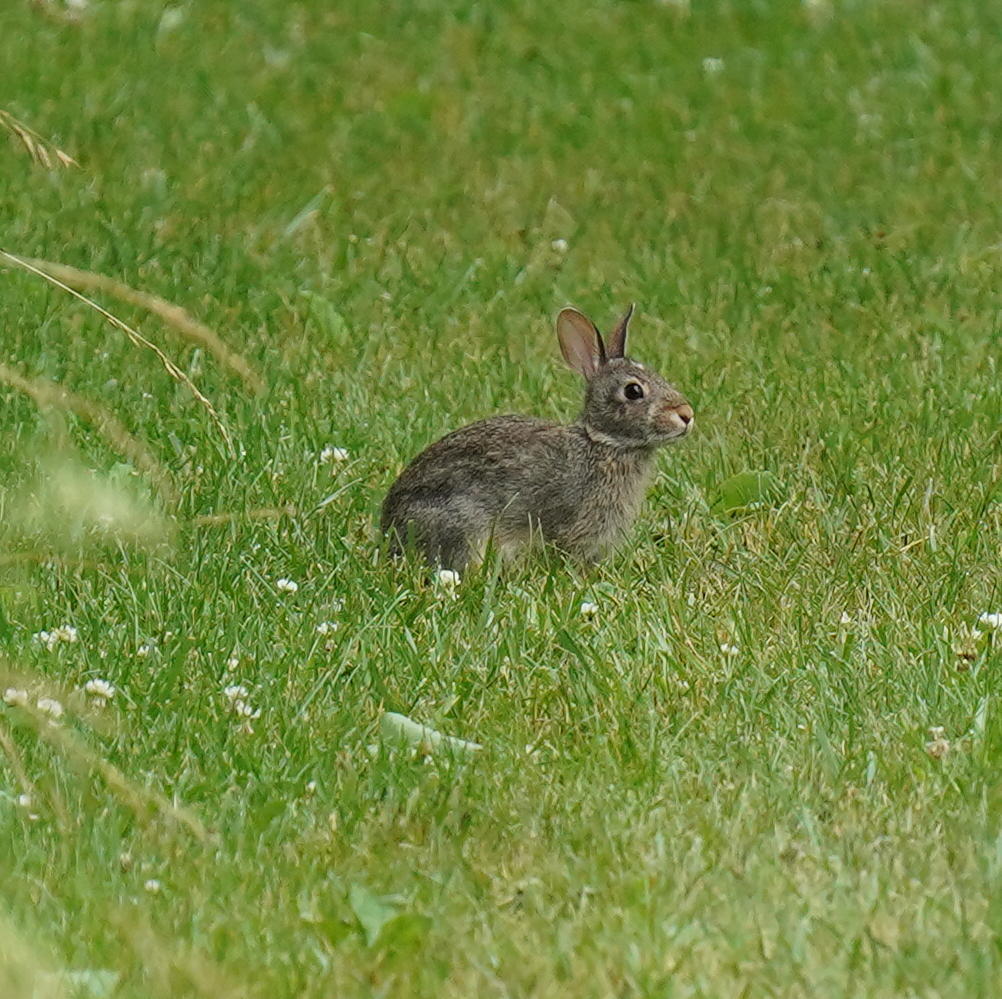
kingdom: Animalia
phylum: Chordata
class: Mammalia
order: Lagomorpha
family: Leporidae
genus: Sylvilagus
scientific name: Sylvilagus floridanus
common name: Eastern cottontail
